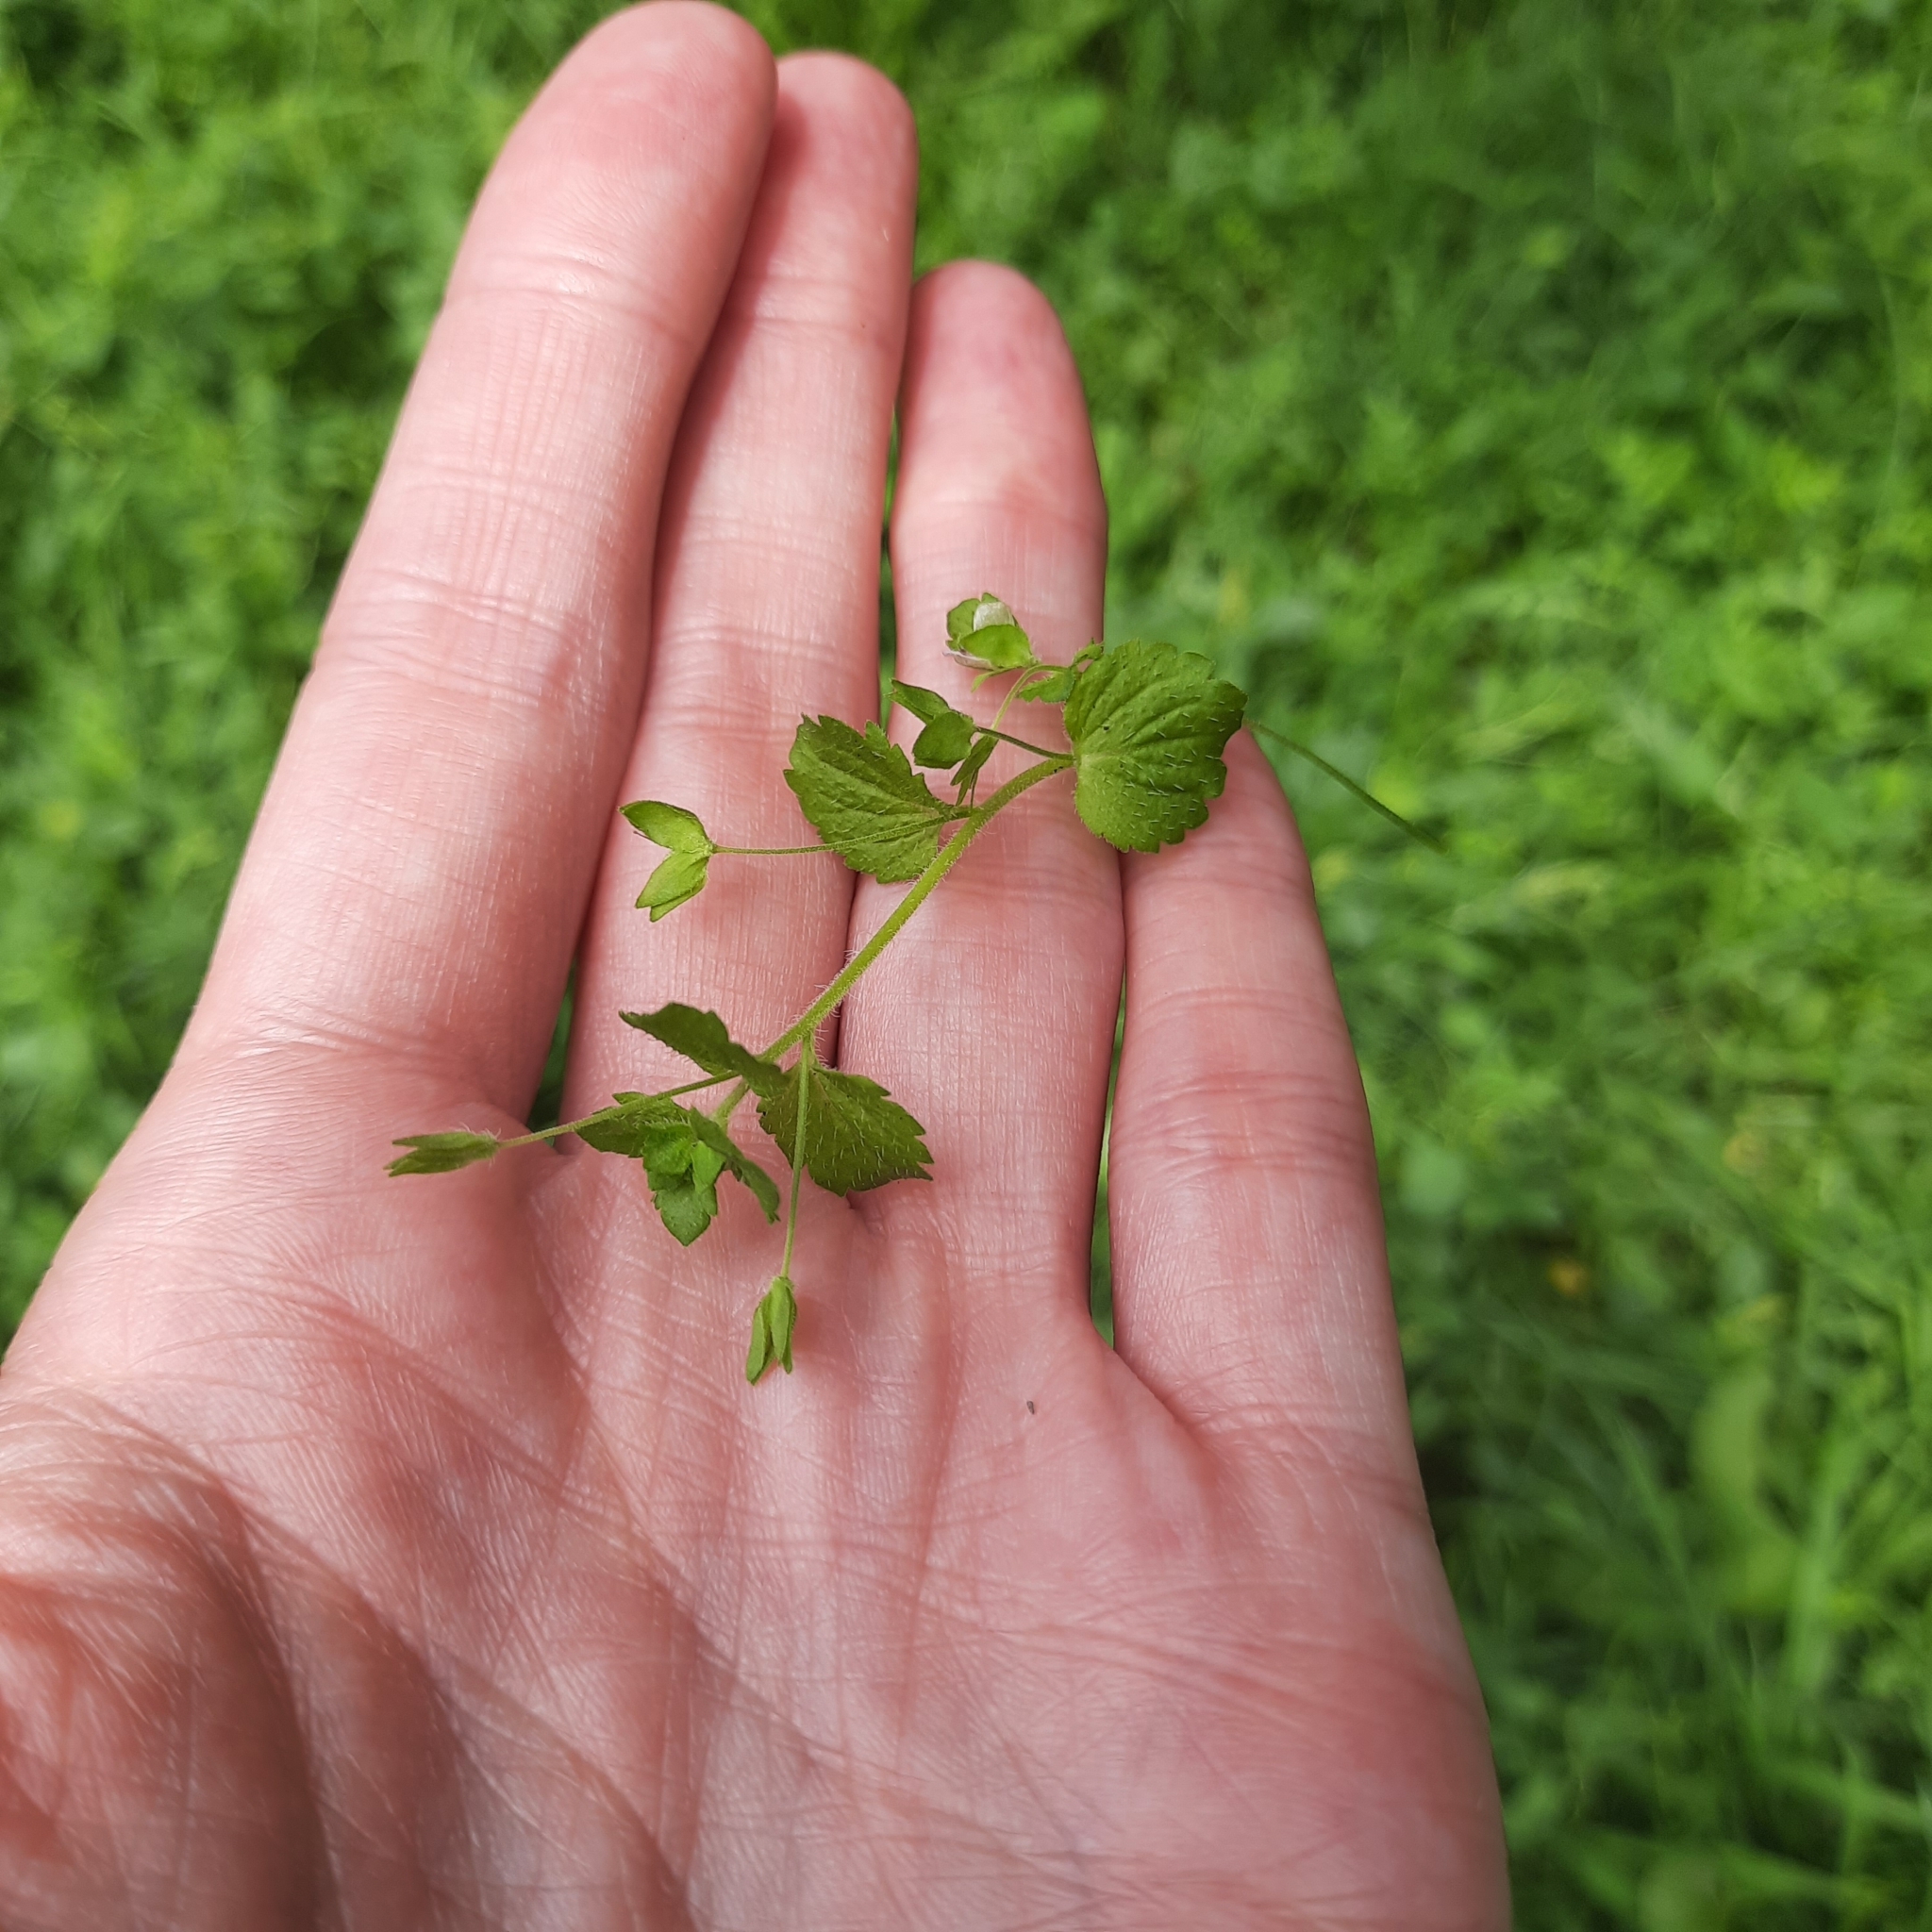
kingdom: Plantae
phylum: Tracheophyta
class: Magnoliopsida
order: Lamiales
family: Plantaginaceae
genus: Veronica
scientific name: Veronica persica
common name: Common field-speedwell
